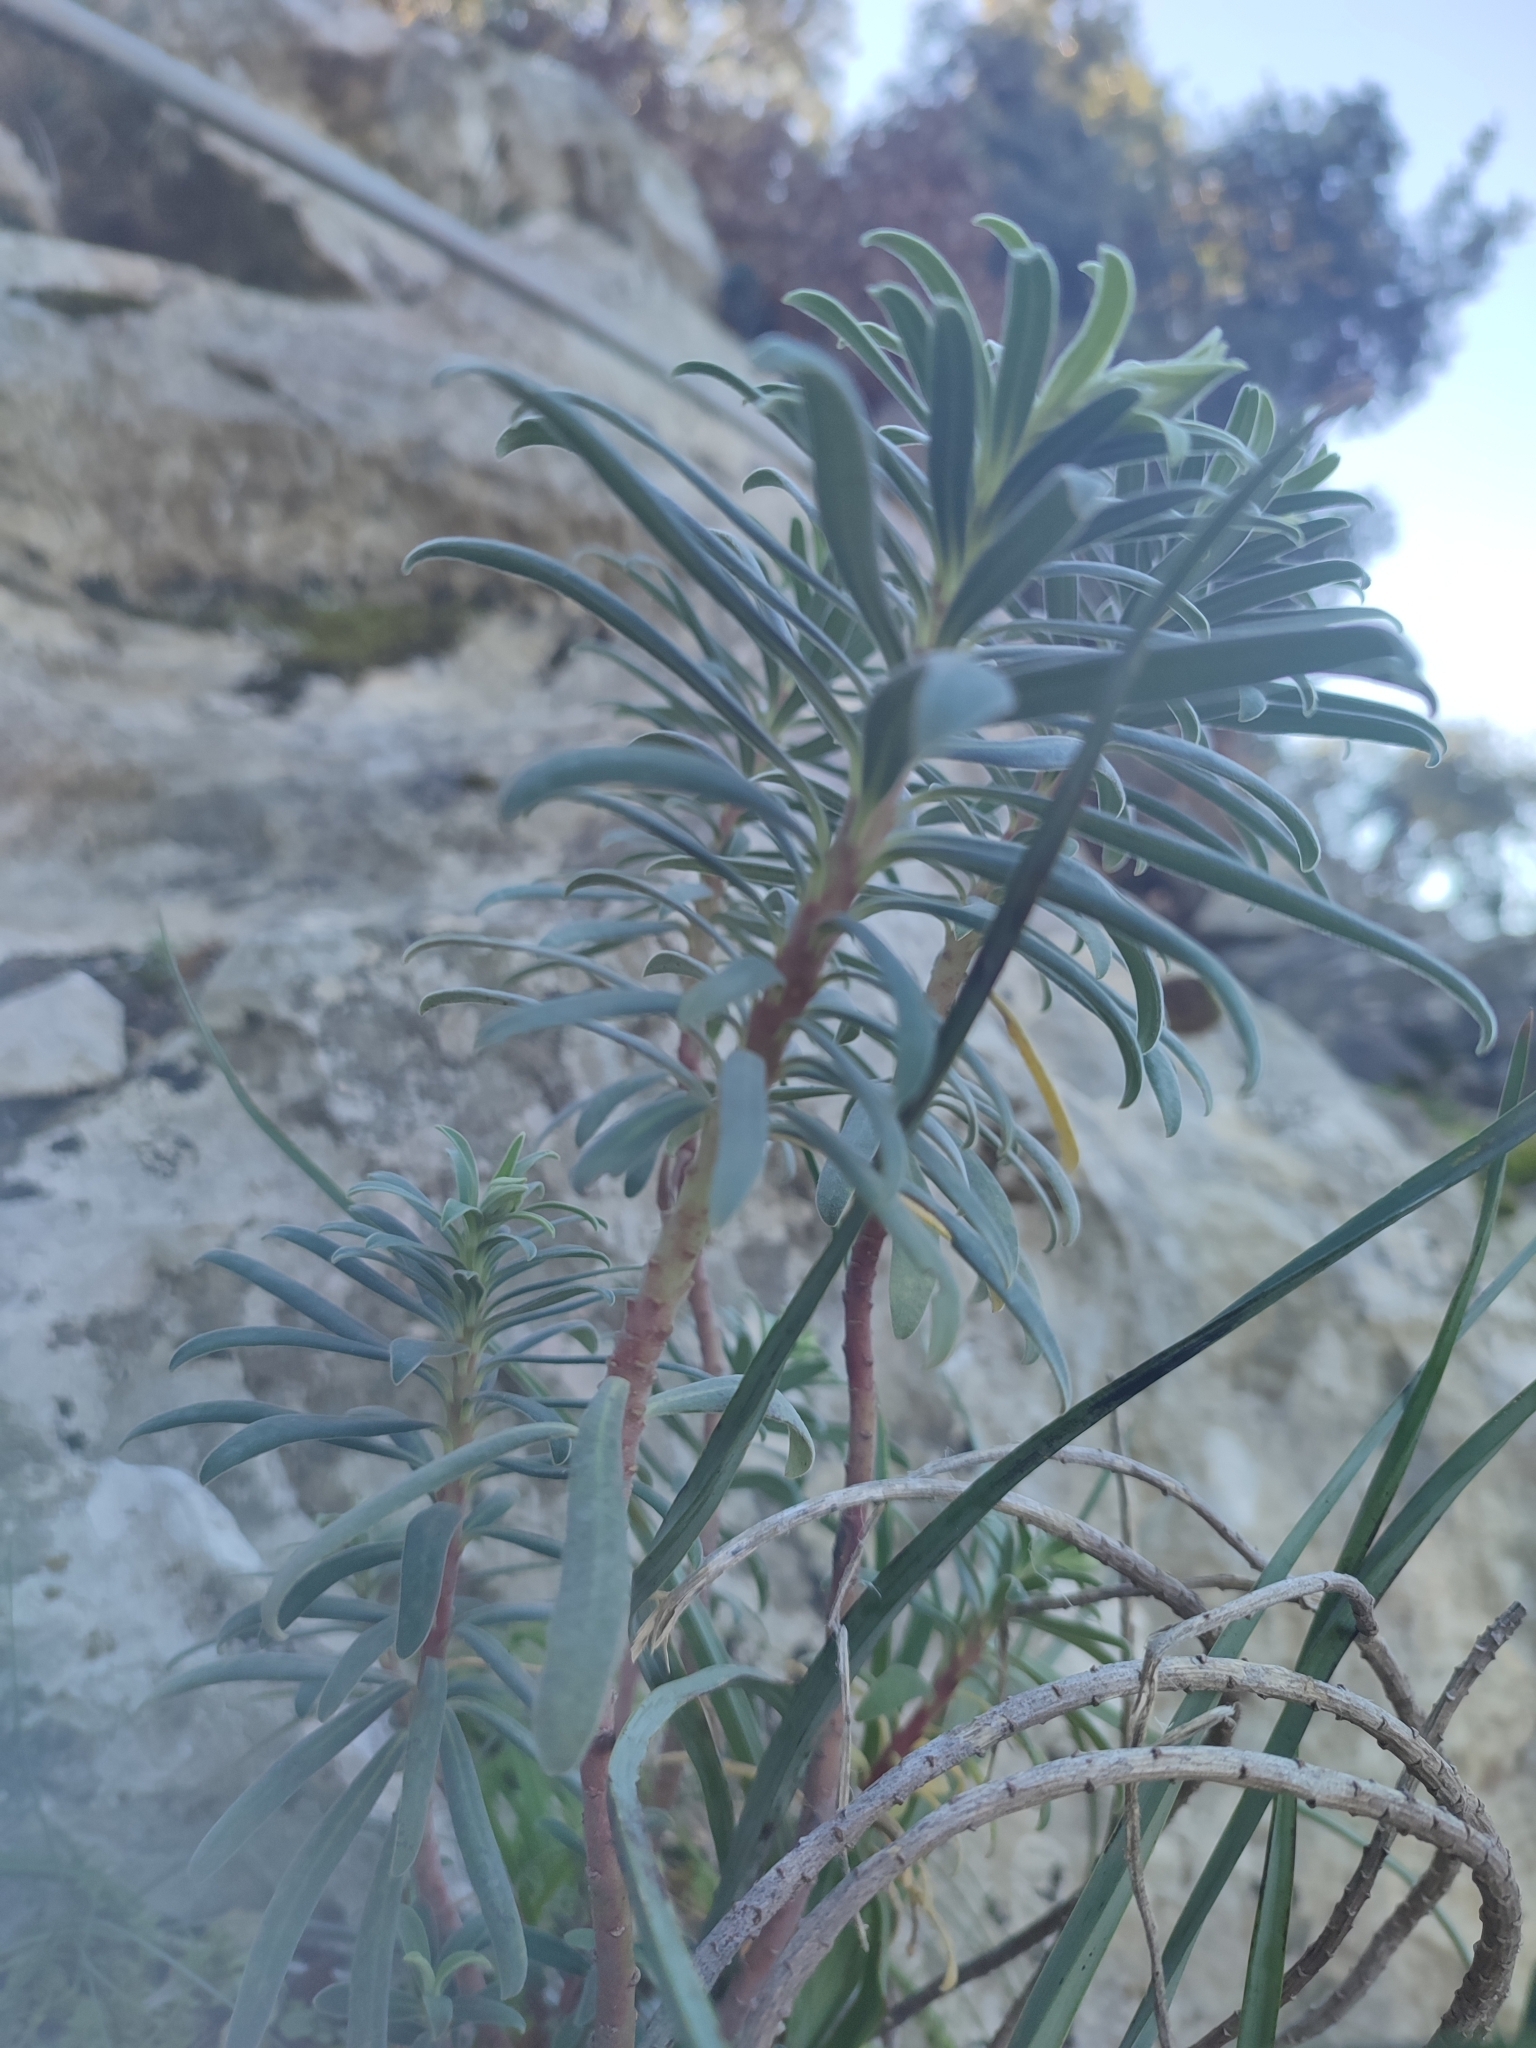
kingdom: Plantae
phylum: Tracheophyta
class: Magnoliopsida
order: Malpighiales
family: Euphorbiaceae
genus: Euphorbia
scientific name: Euphorbia characias
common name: Mediterranean spurge
